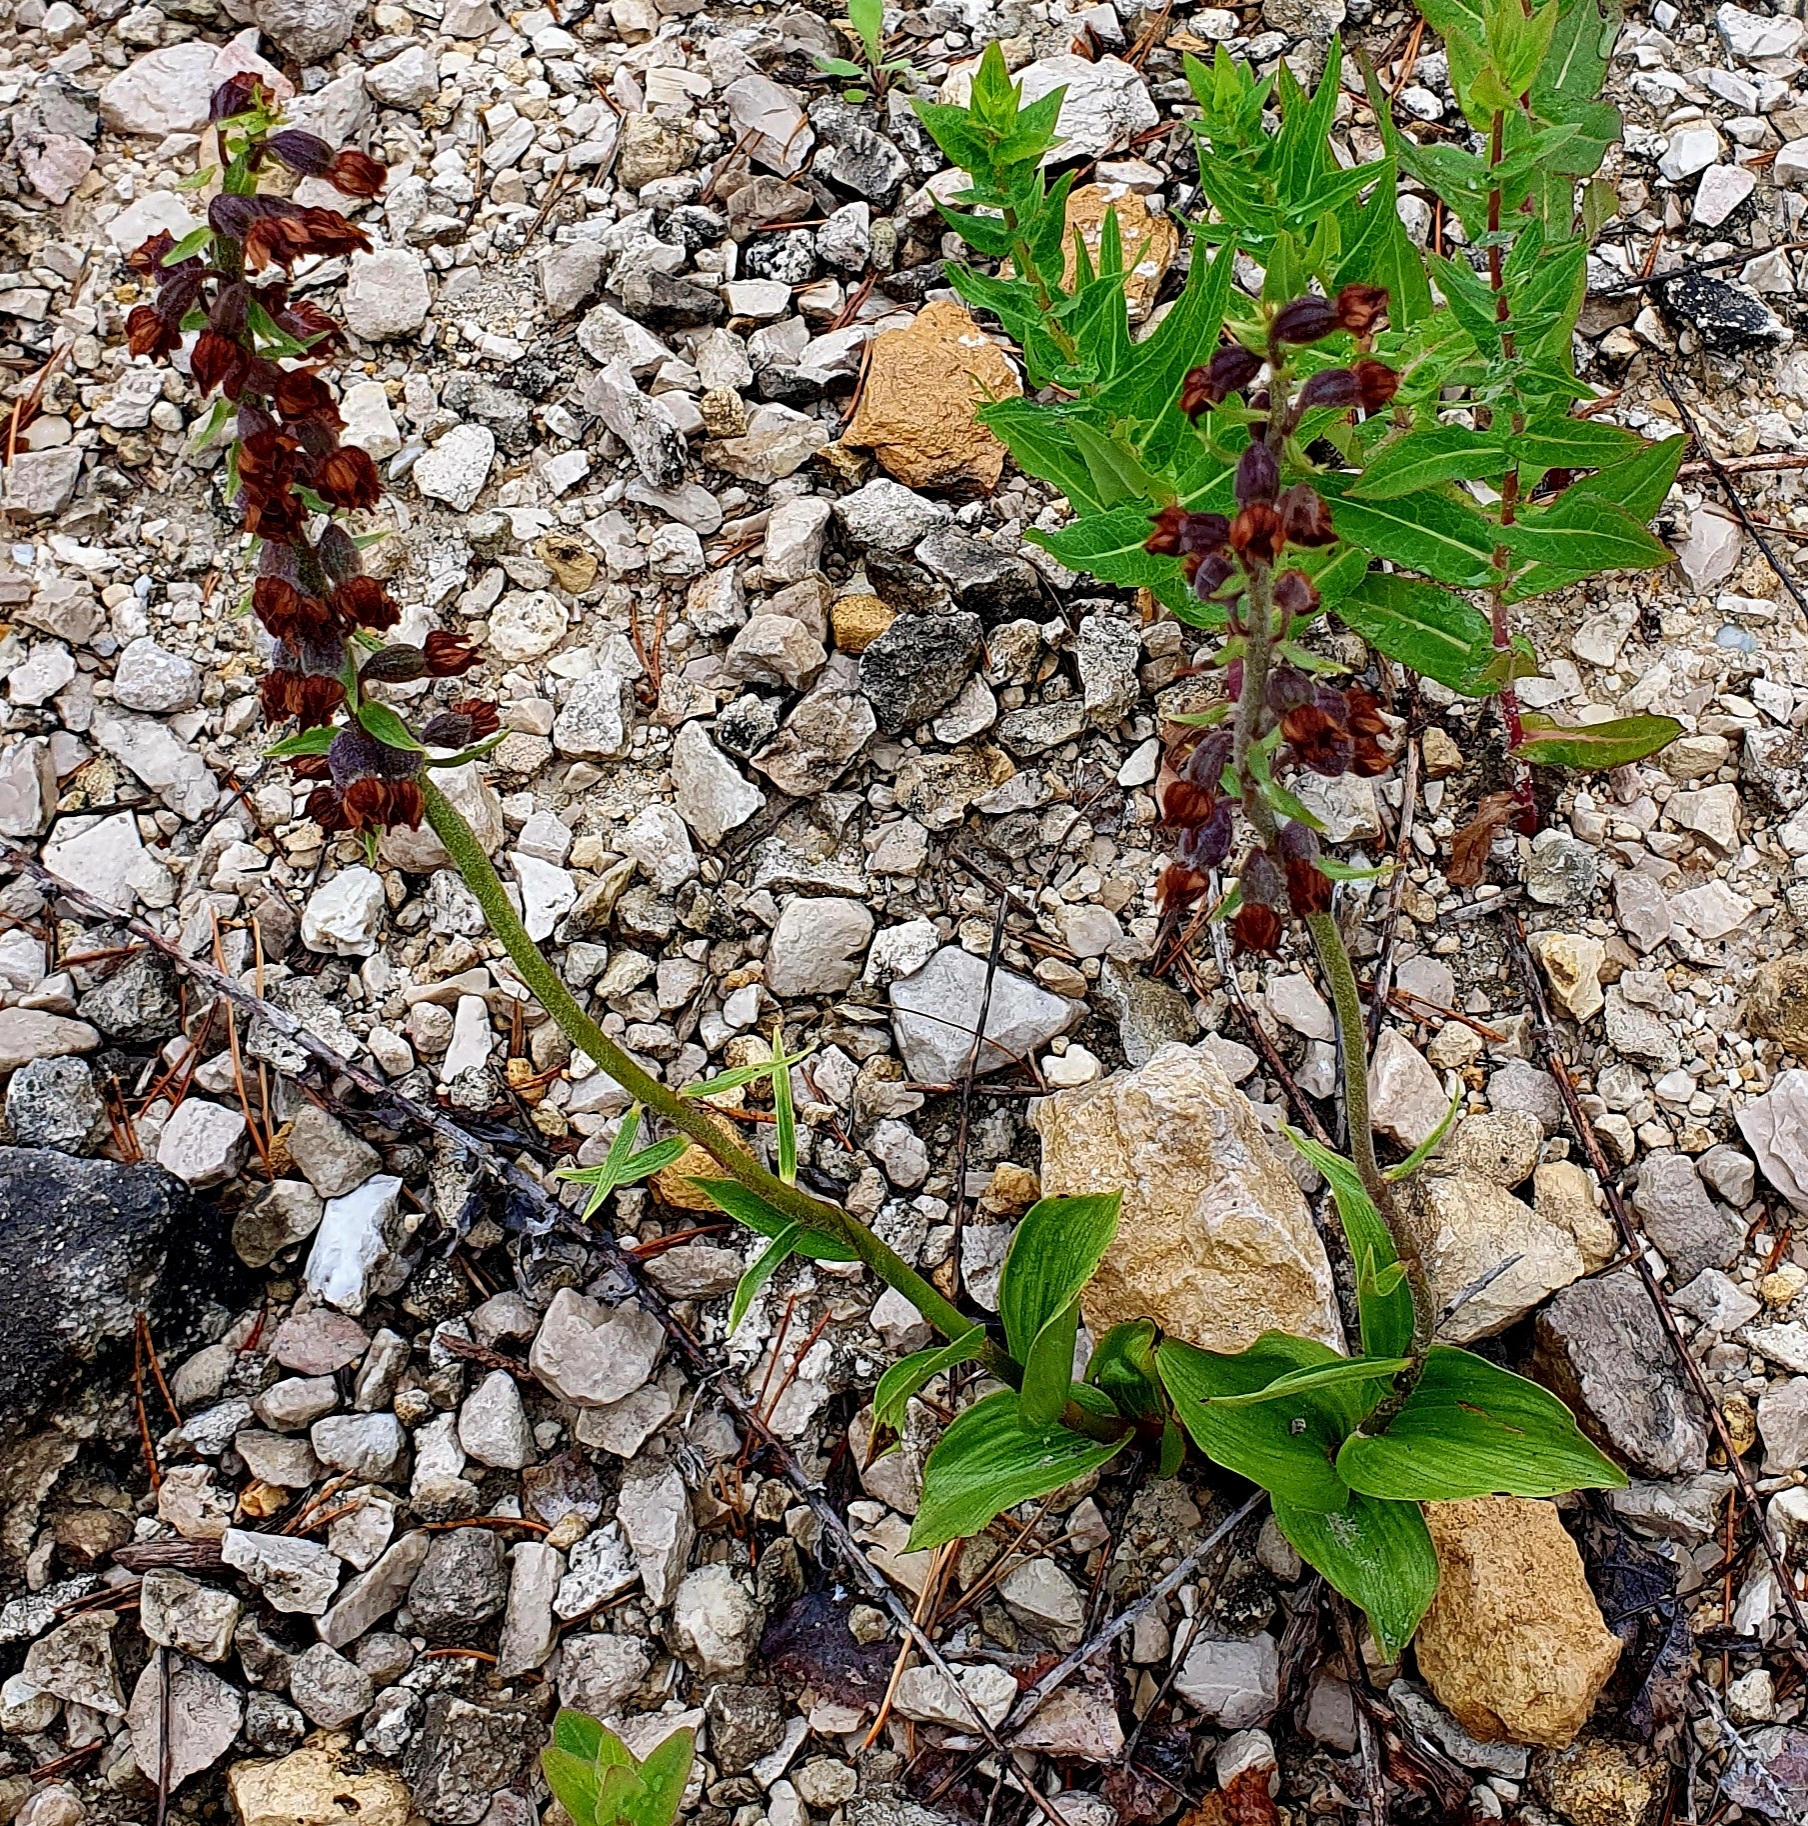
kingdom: Plantae
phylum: Tracheophyta
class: Liliopsida
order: Asparagales
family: Orchidaceae
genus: Epipactis
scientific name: Epipactis atrorubens
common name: Dark-red helleborine
